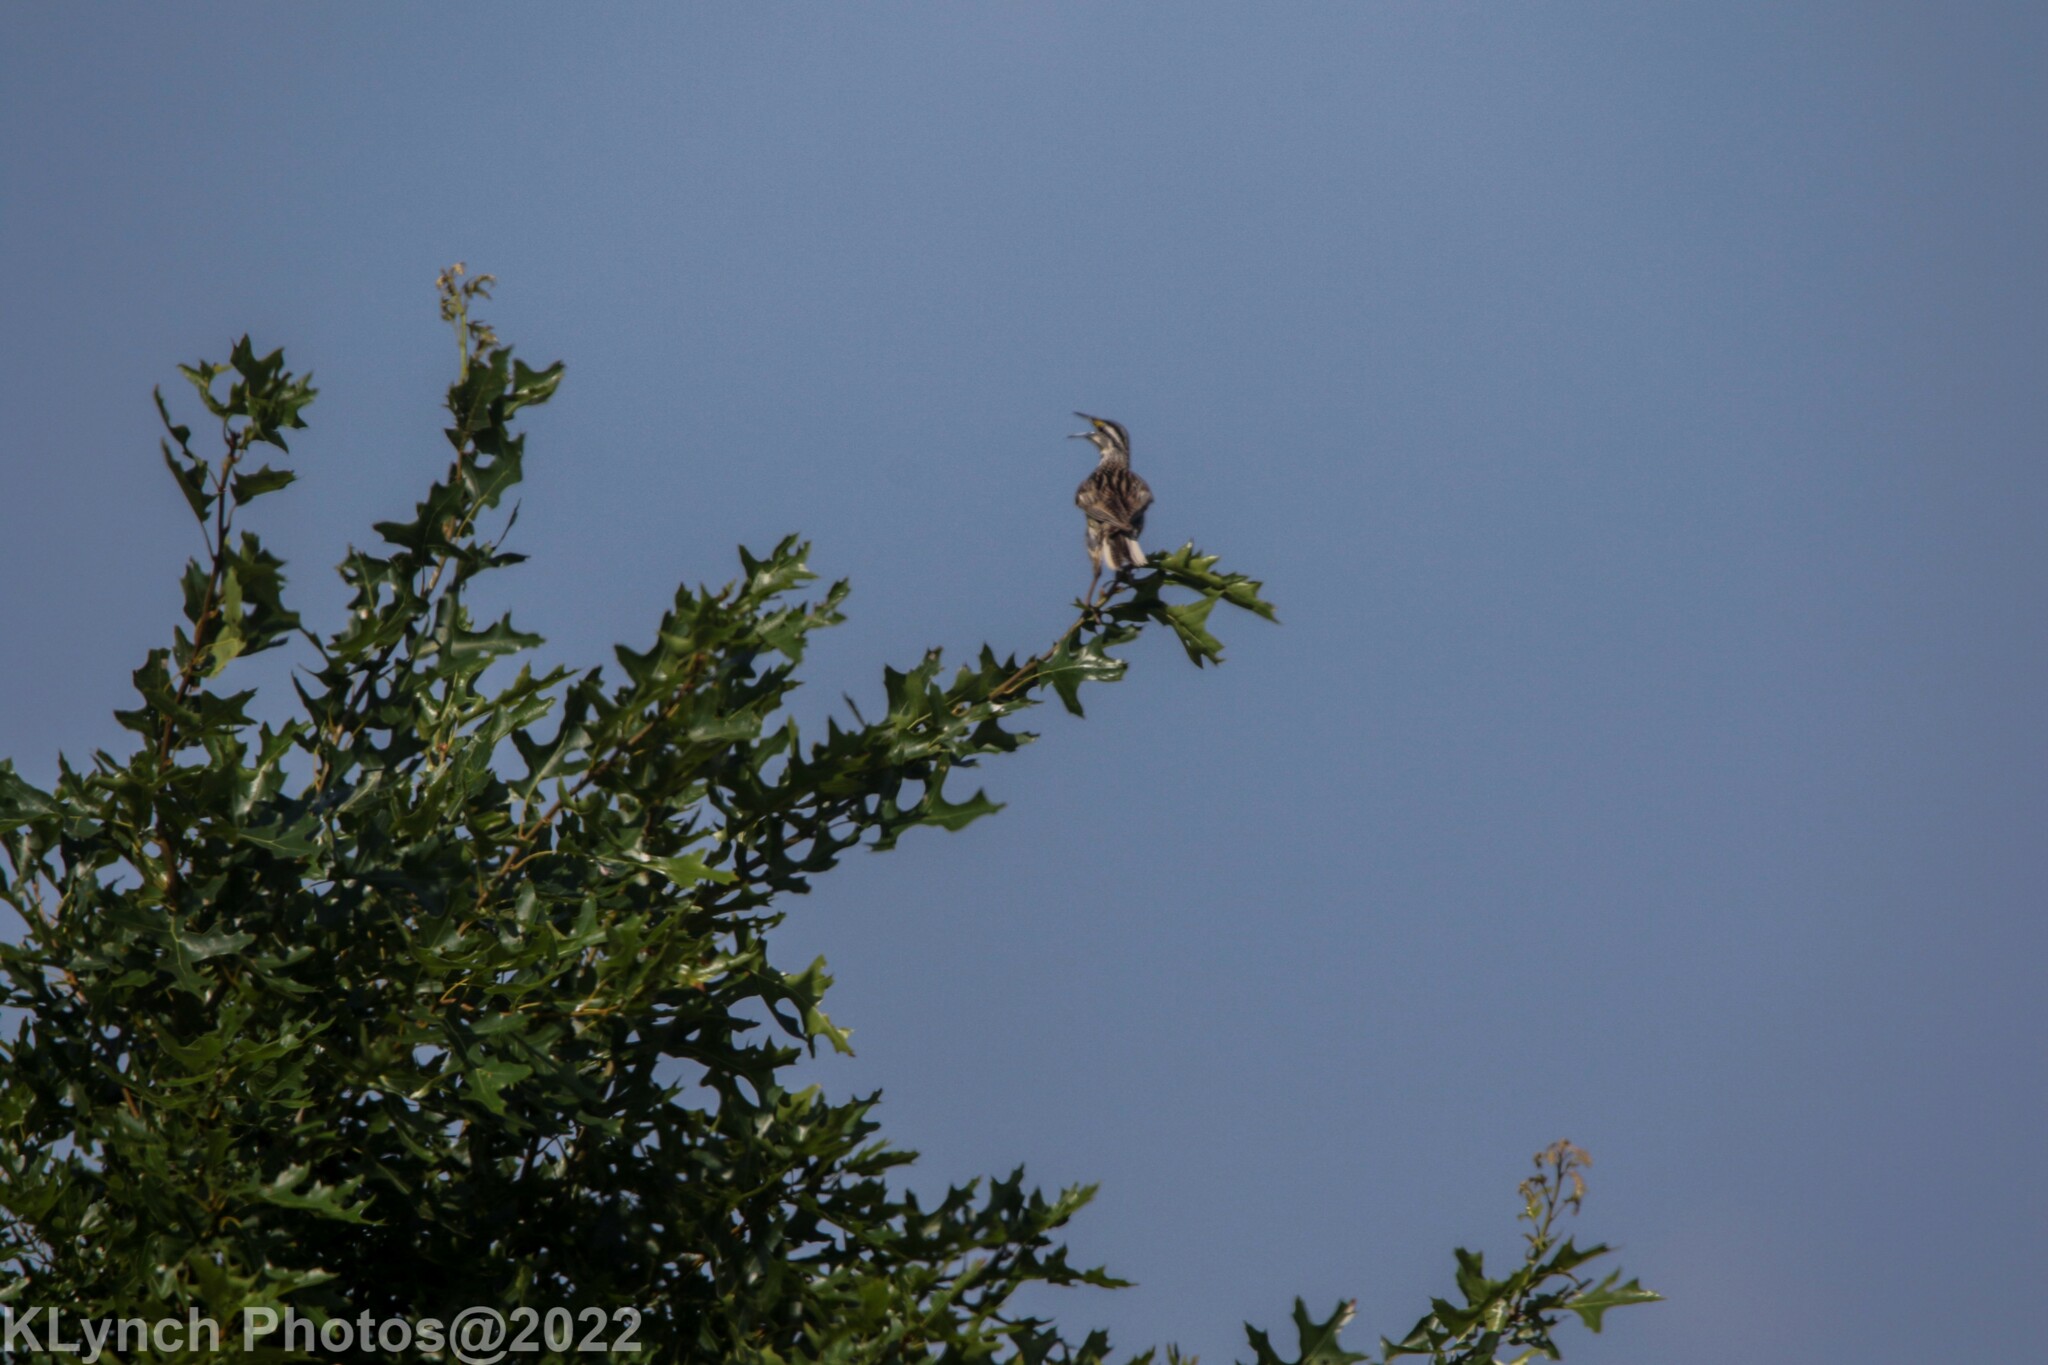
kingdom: Animalia
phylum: Chordata
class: Aves
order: Passeriformes
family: Icteridae
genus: Sturnella
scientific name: Sturnella magna
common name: Eastern meadowlark
